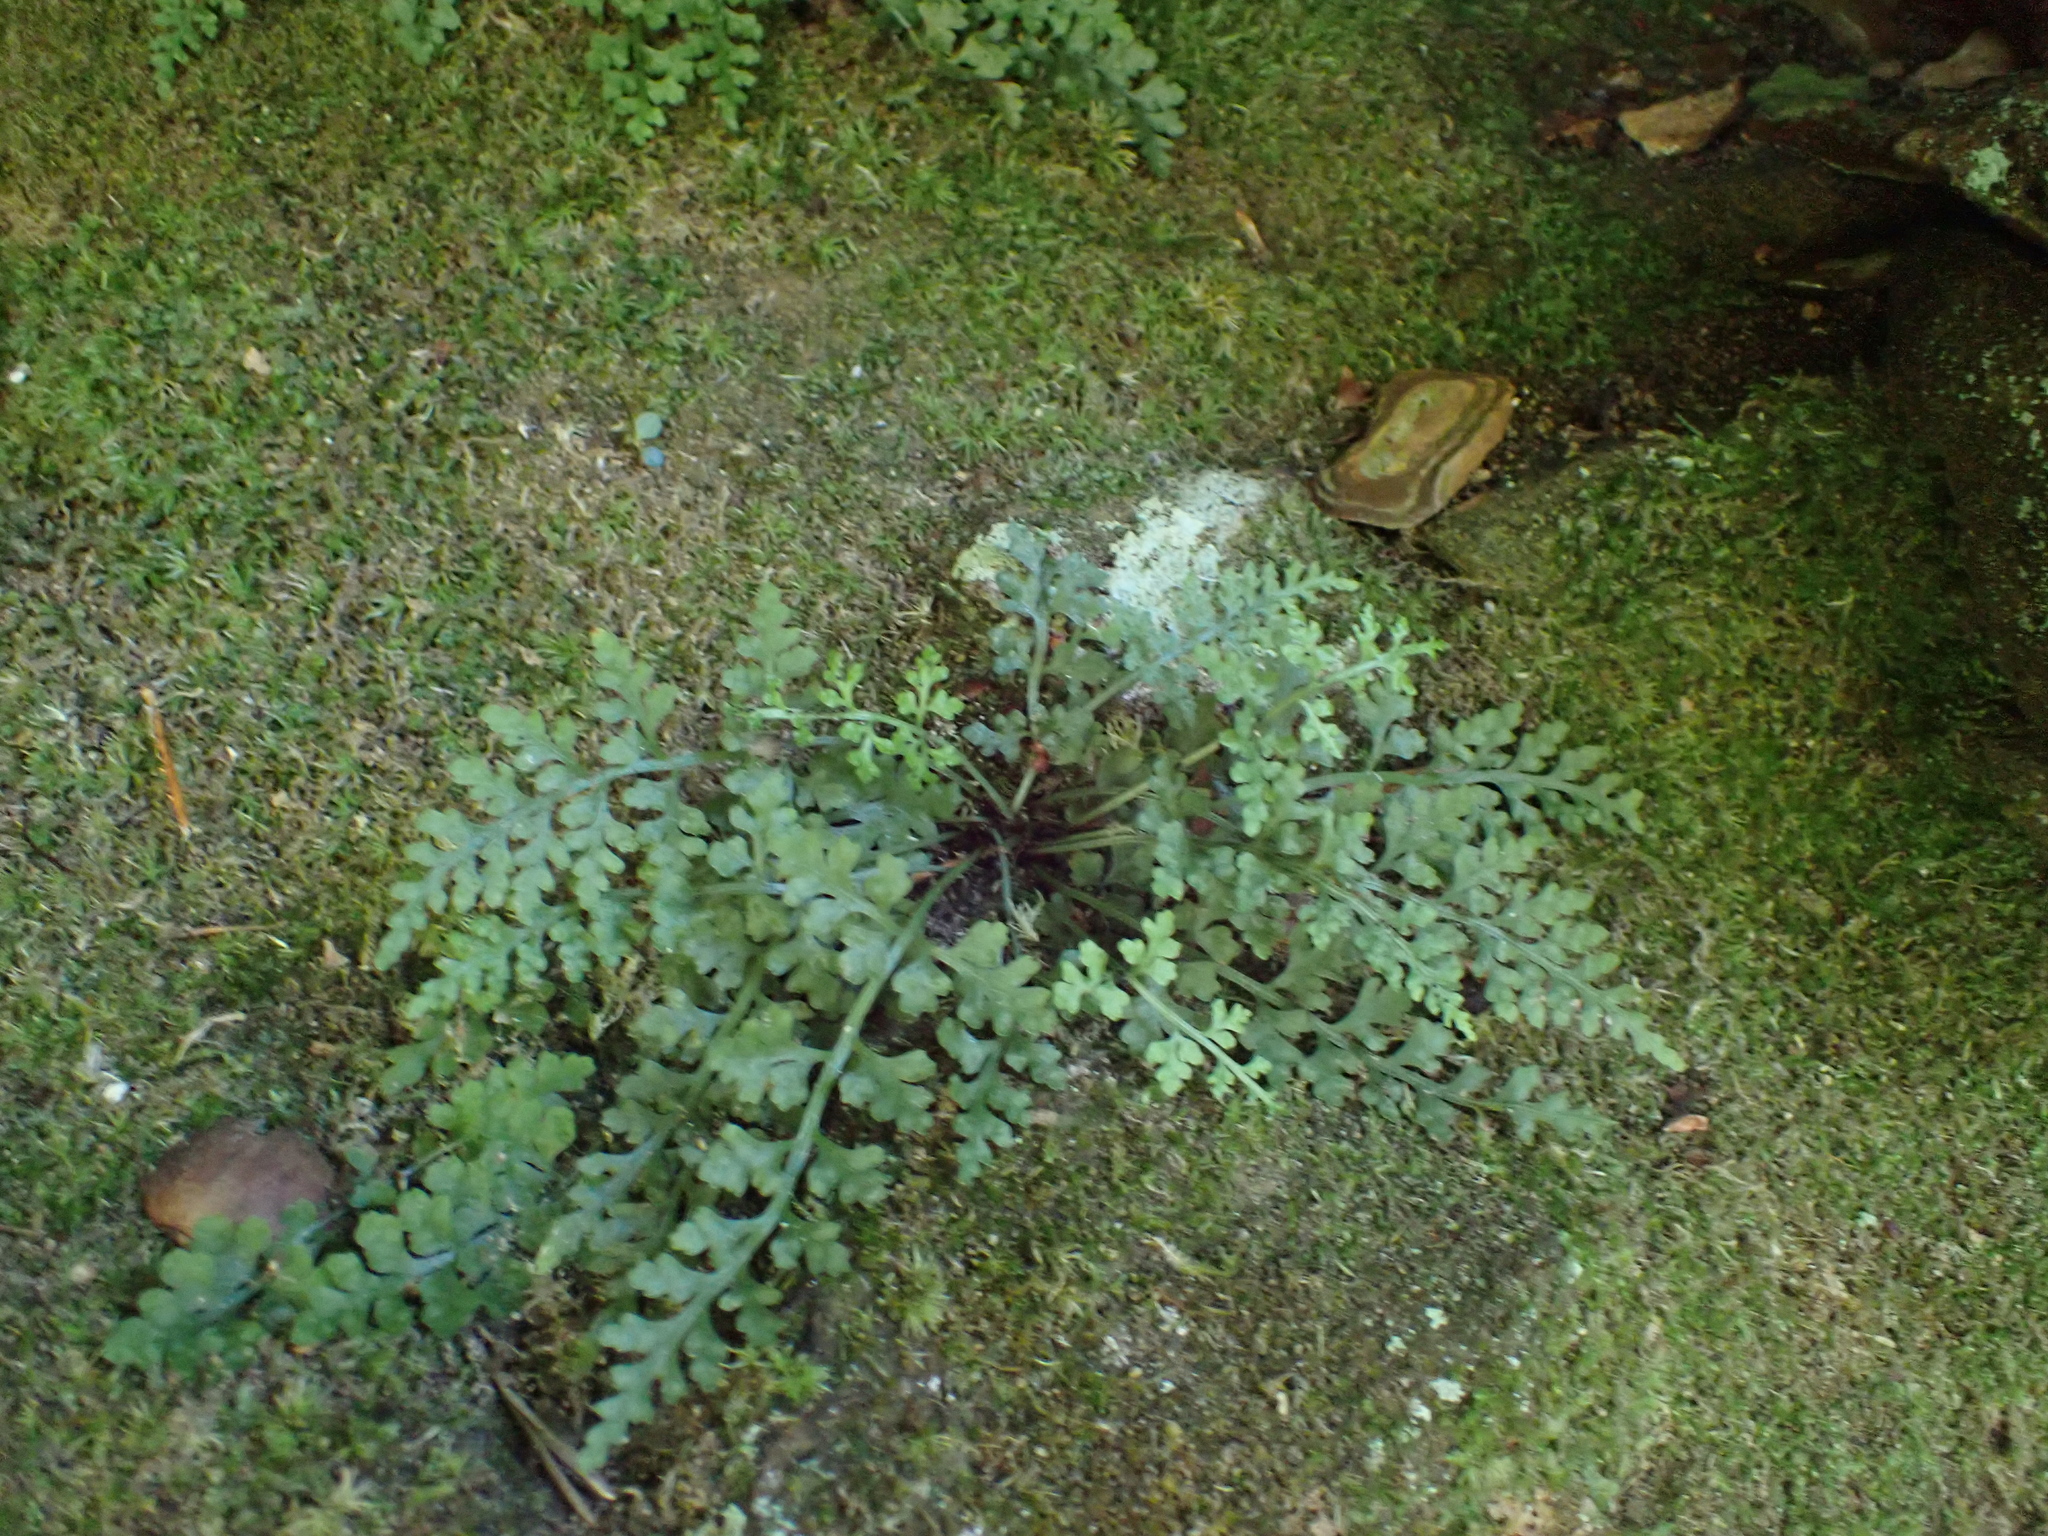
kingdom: Plantae
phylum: Tracheophyta
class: Polypodiopsida
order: Polypodiales
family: Aspleniaceae
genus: Asplenium
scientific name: Asplenium montanum
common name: Mountain spleenwort
